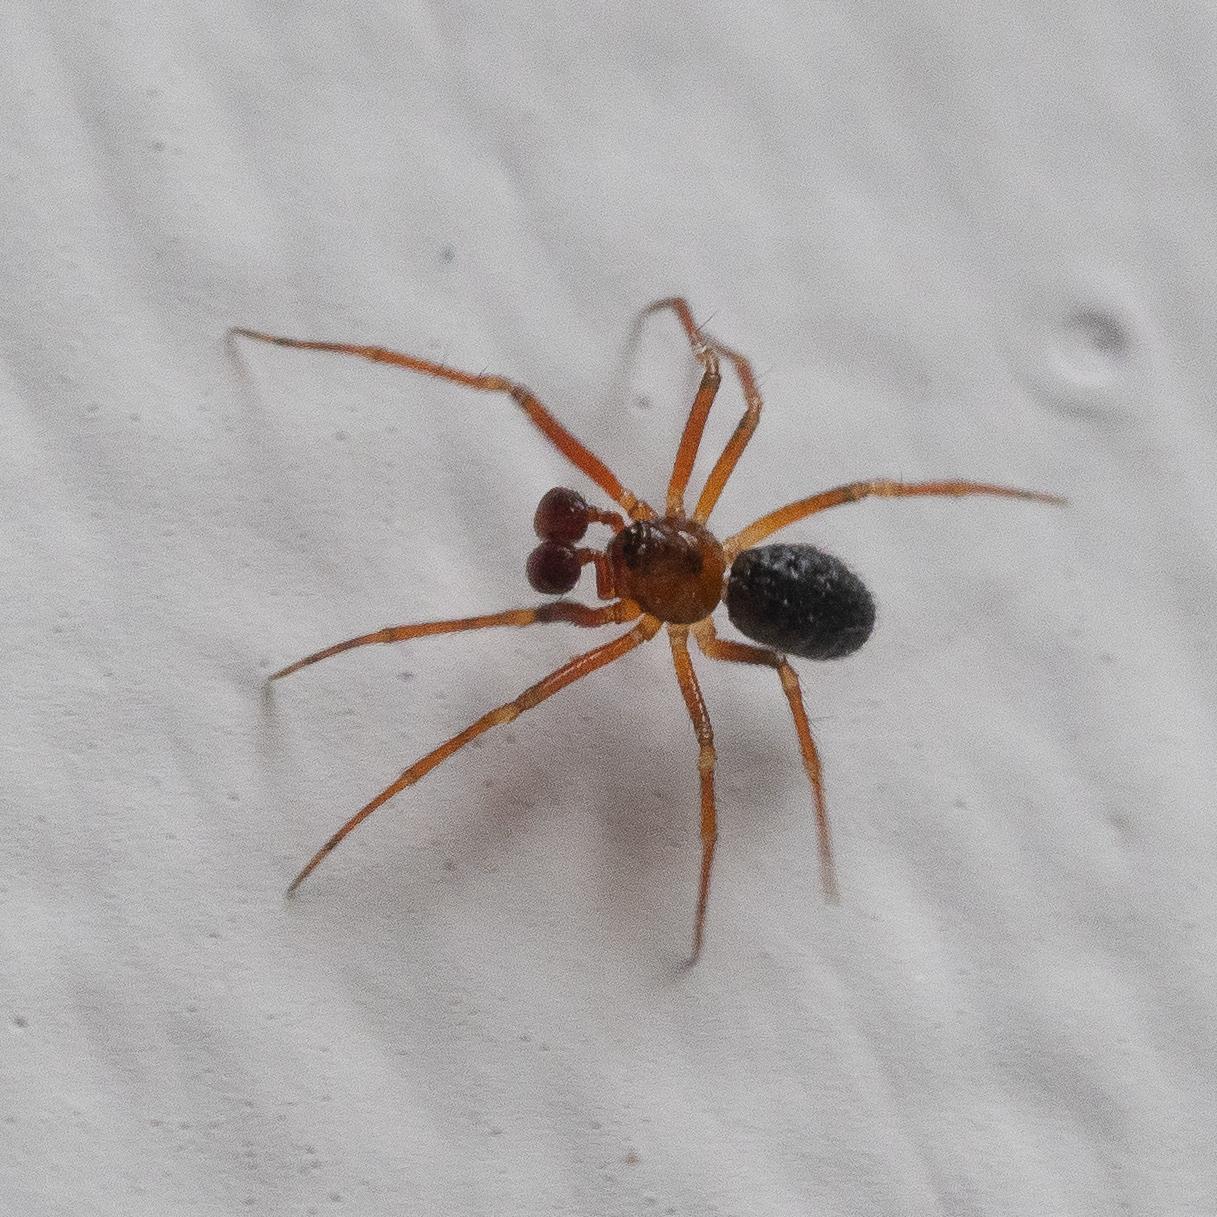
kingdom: Animalia
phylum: Arthropoda
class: Arachnida
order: Araneae
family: Theridiidae
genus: Sardinidion
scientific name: Sardinidion blackwalli
